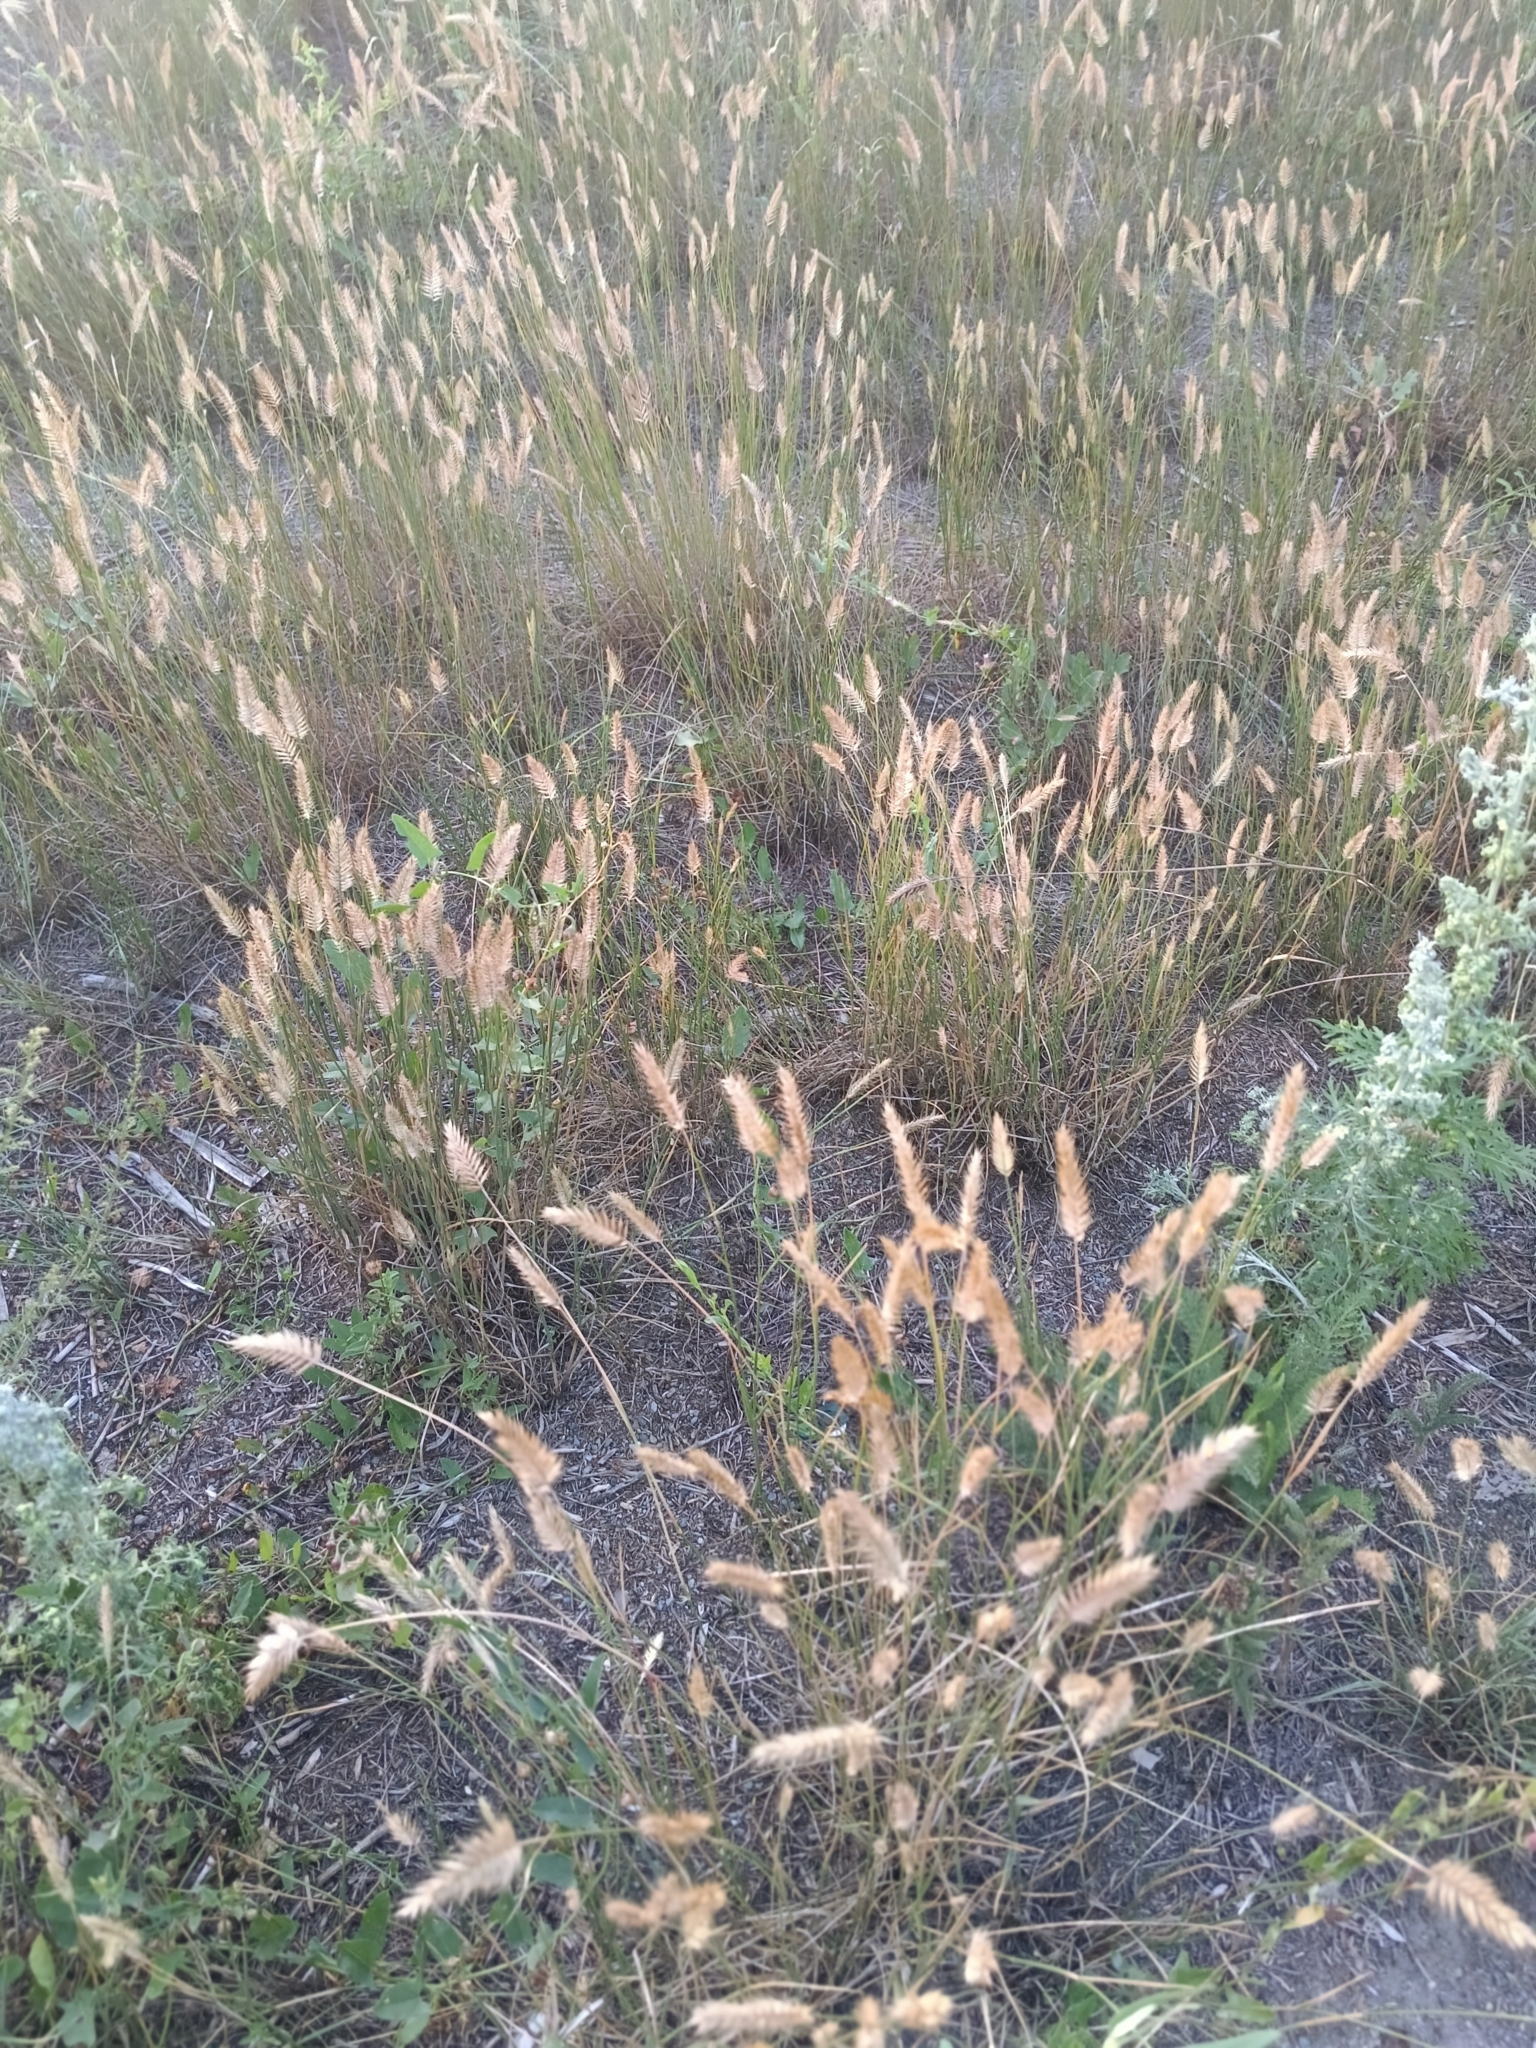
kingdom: Plantae
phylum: Tracheophyta
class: Liliopsida
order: Poales
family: Poaceae
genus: Agropyron
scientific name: Agropyron cristatum
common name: Crested wheatgrass
